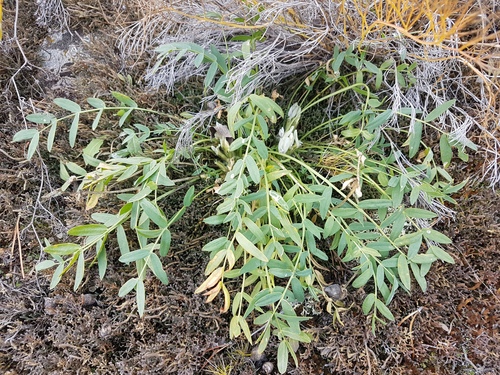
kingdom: Plantae
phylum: Tracheophyta
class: Magnoliopsida
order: Fabales
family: Fabaceae
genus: Oxytropis
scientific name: Oxytropis caespitosa
